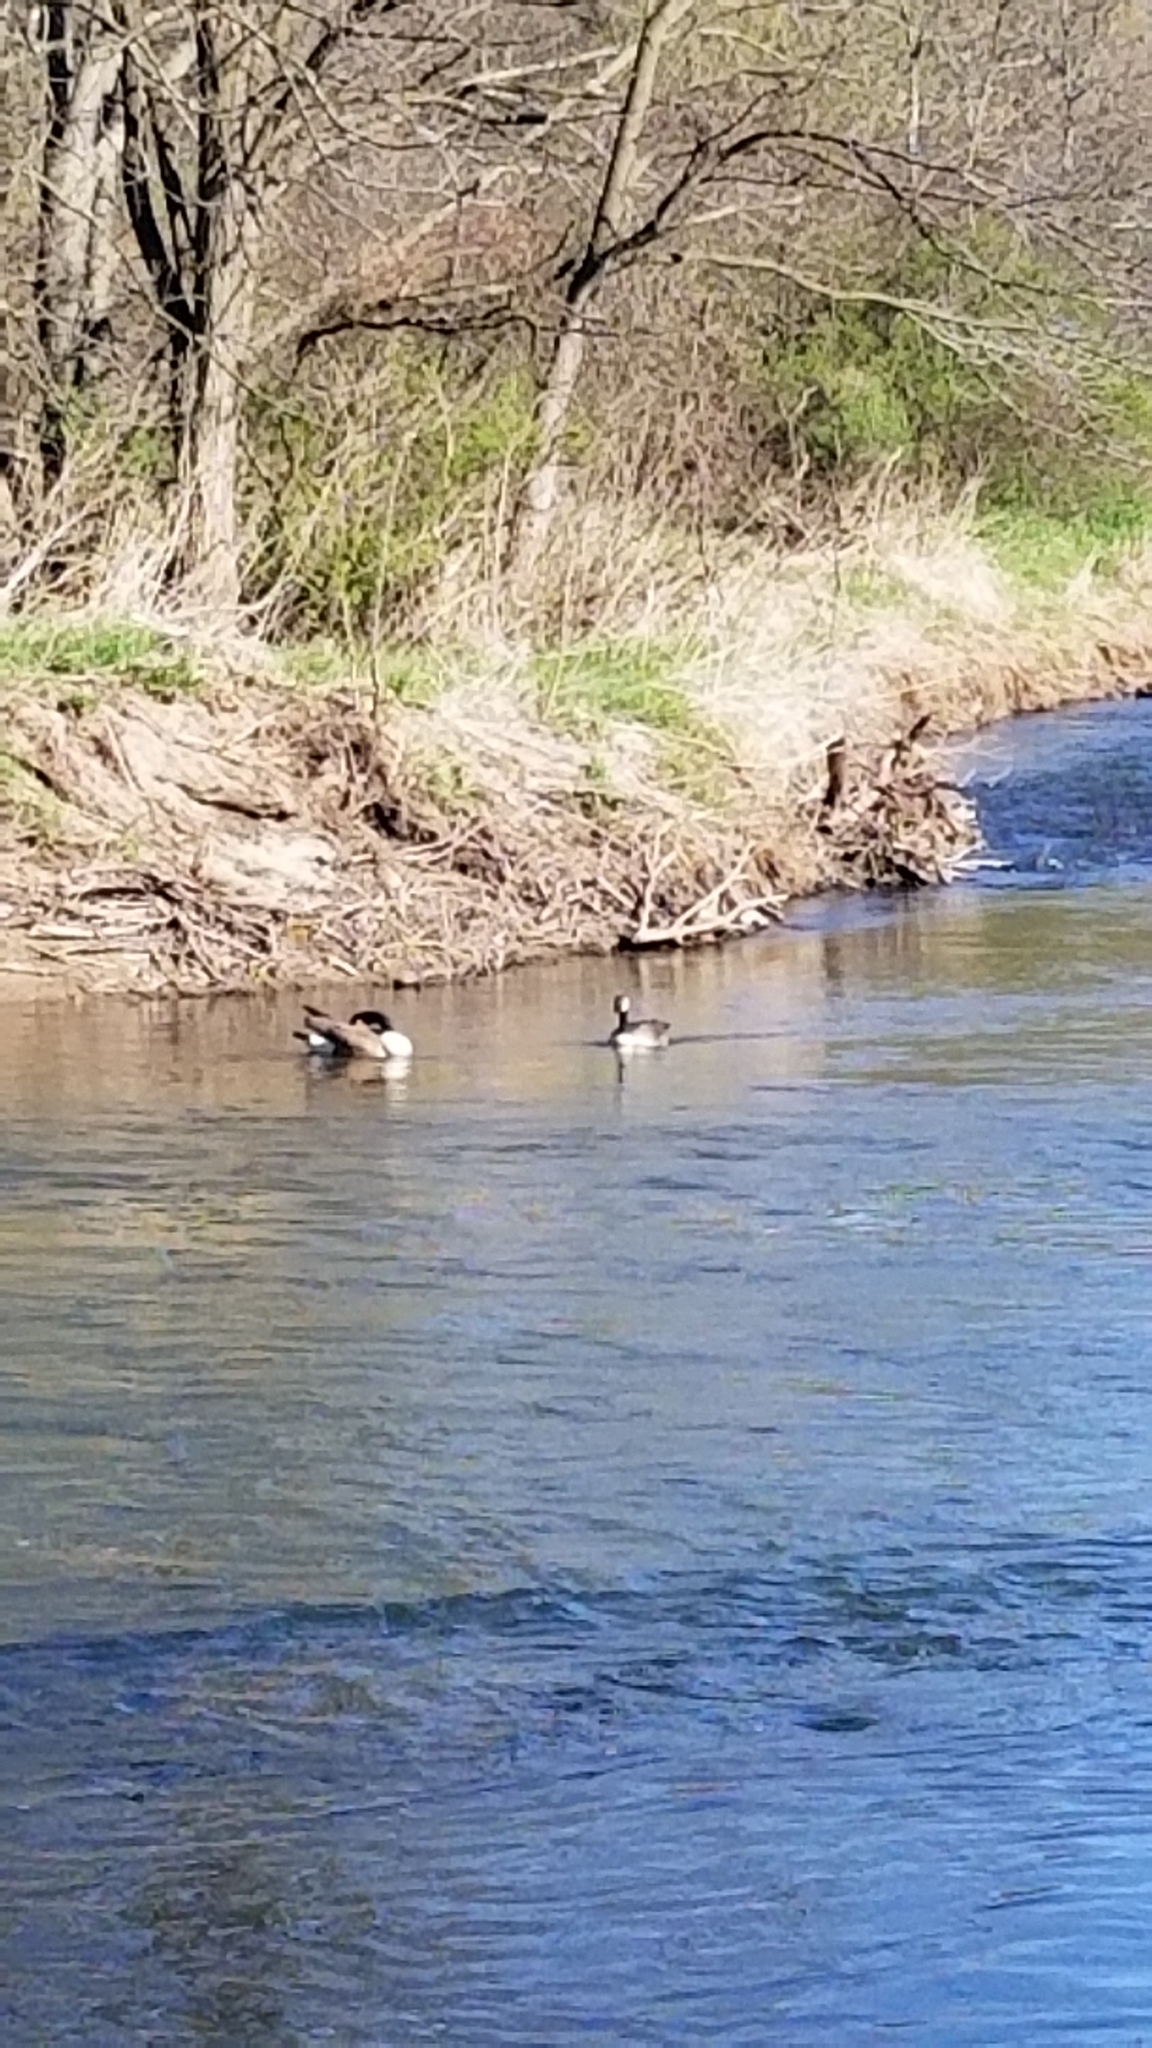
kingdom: Animalia
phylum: Chordata
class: Aves
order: Anseriformes
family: Anatidae
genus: Branta
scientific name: Branta canadensis
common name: Canada goose
